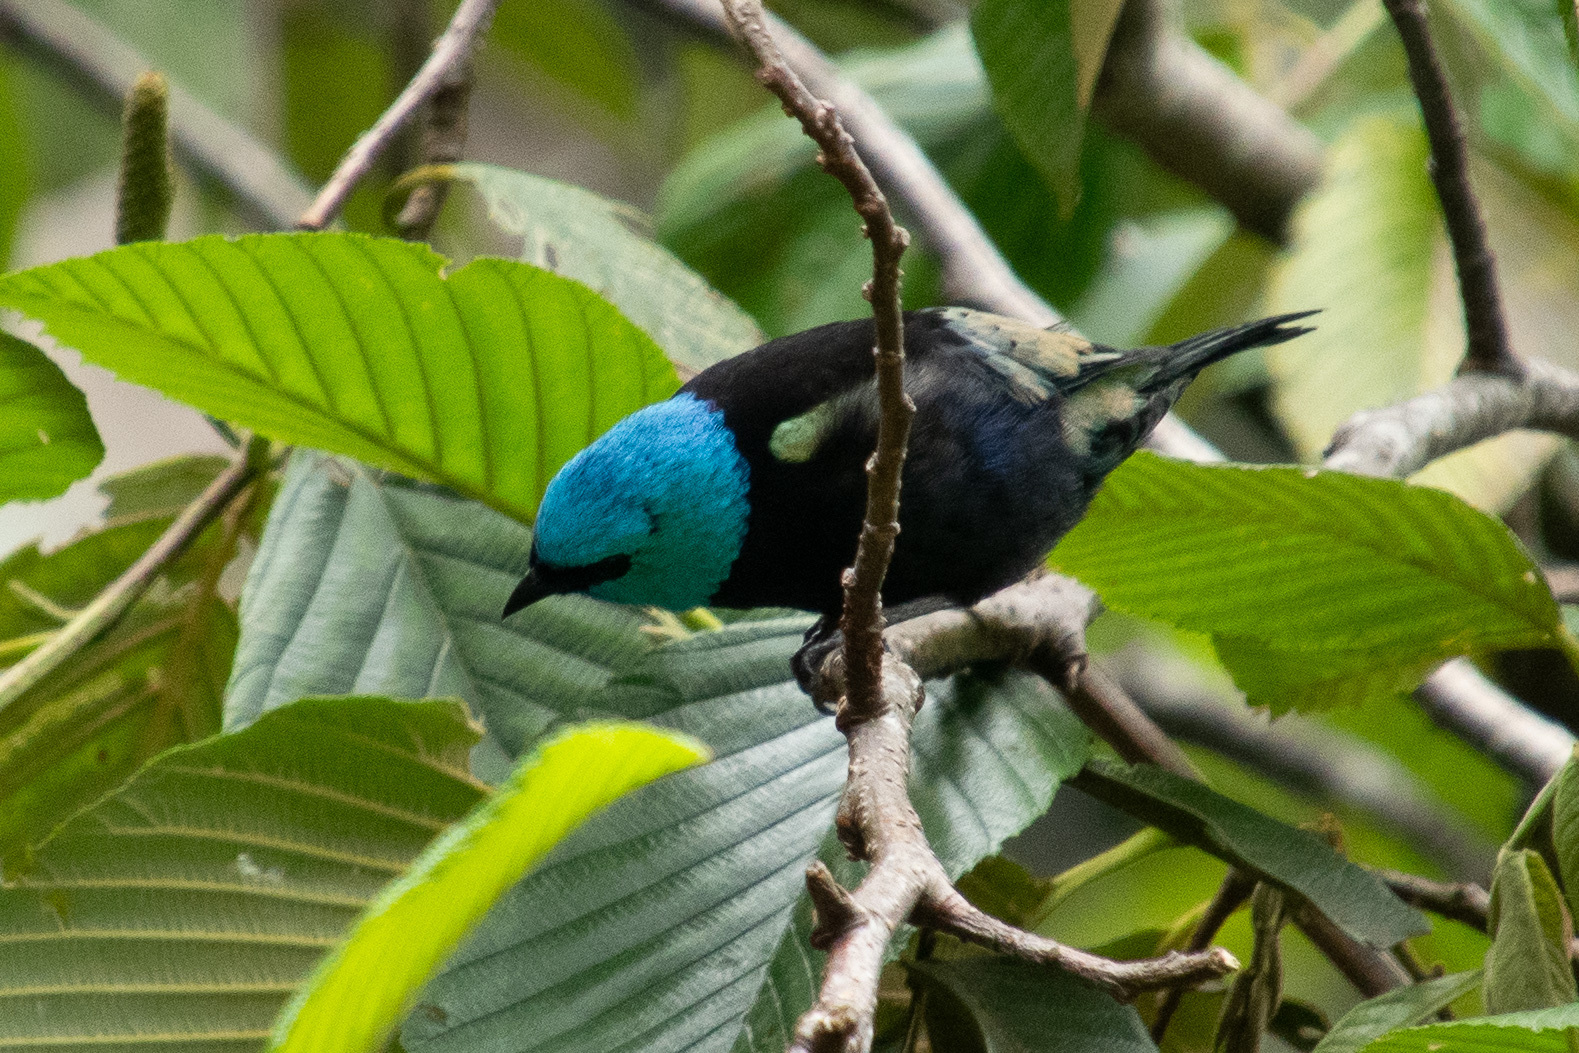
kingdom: Animalia
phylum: Chordata
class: Aves
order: Passeriformes
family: Thraupidae
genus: Stilpnia
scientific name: Stilpnia cyanicollis
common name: Blue-necked tanager
